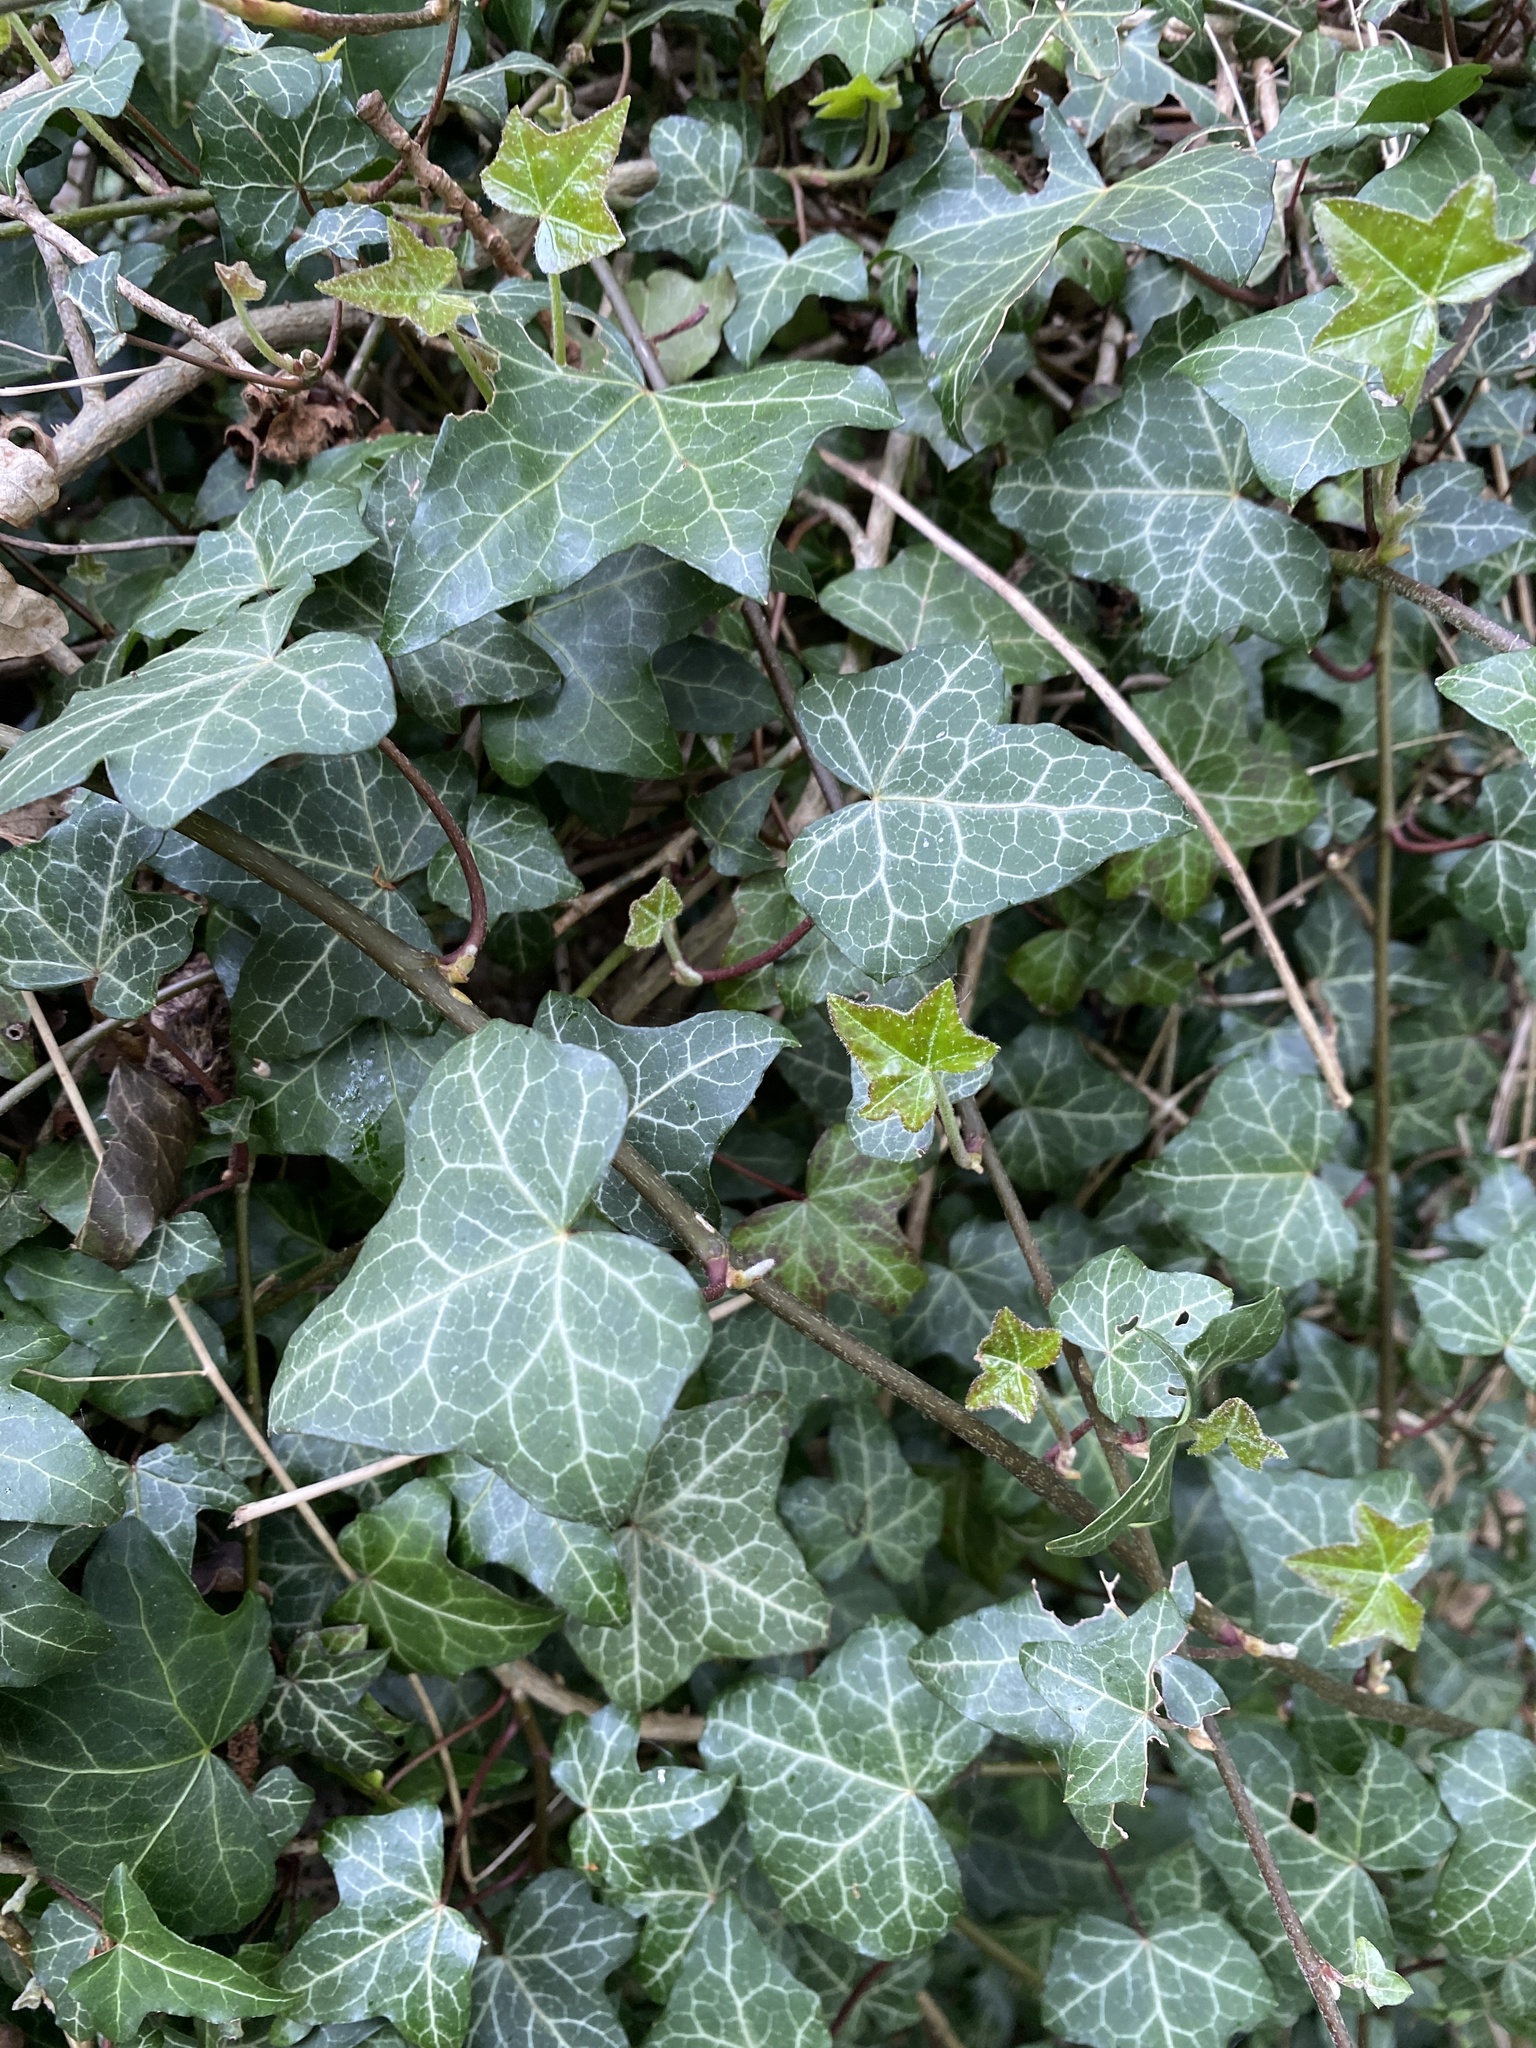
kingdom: Plantae
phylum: Tracheophyta
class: Magnoliopsida
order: Apiales
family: Araliaceae
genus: Hedera
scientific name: Hedera helix
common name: Ivy
